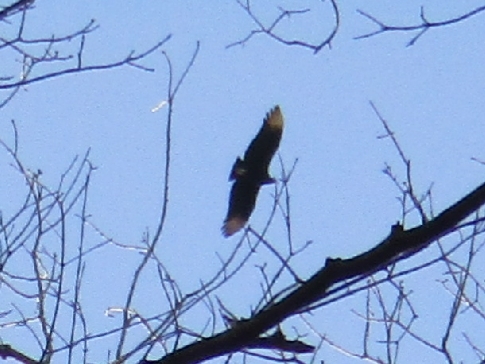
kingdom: Animalia
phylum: Chordata
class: Aves
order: Accipitriformes
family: Cathartidae
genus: Coragyps
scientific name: Coragyps atratus
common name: Black vulture
